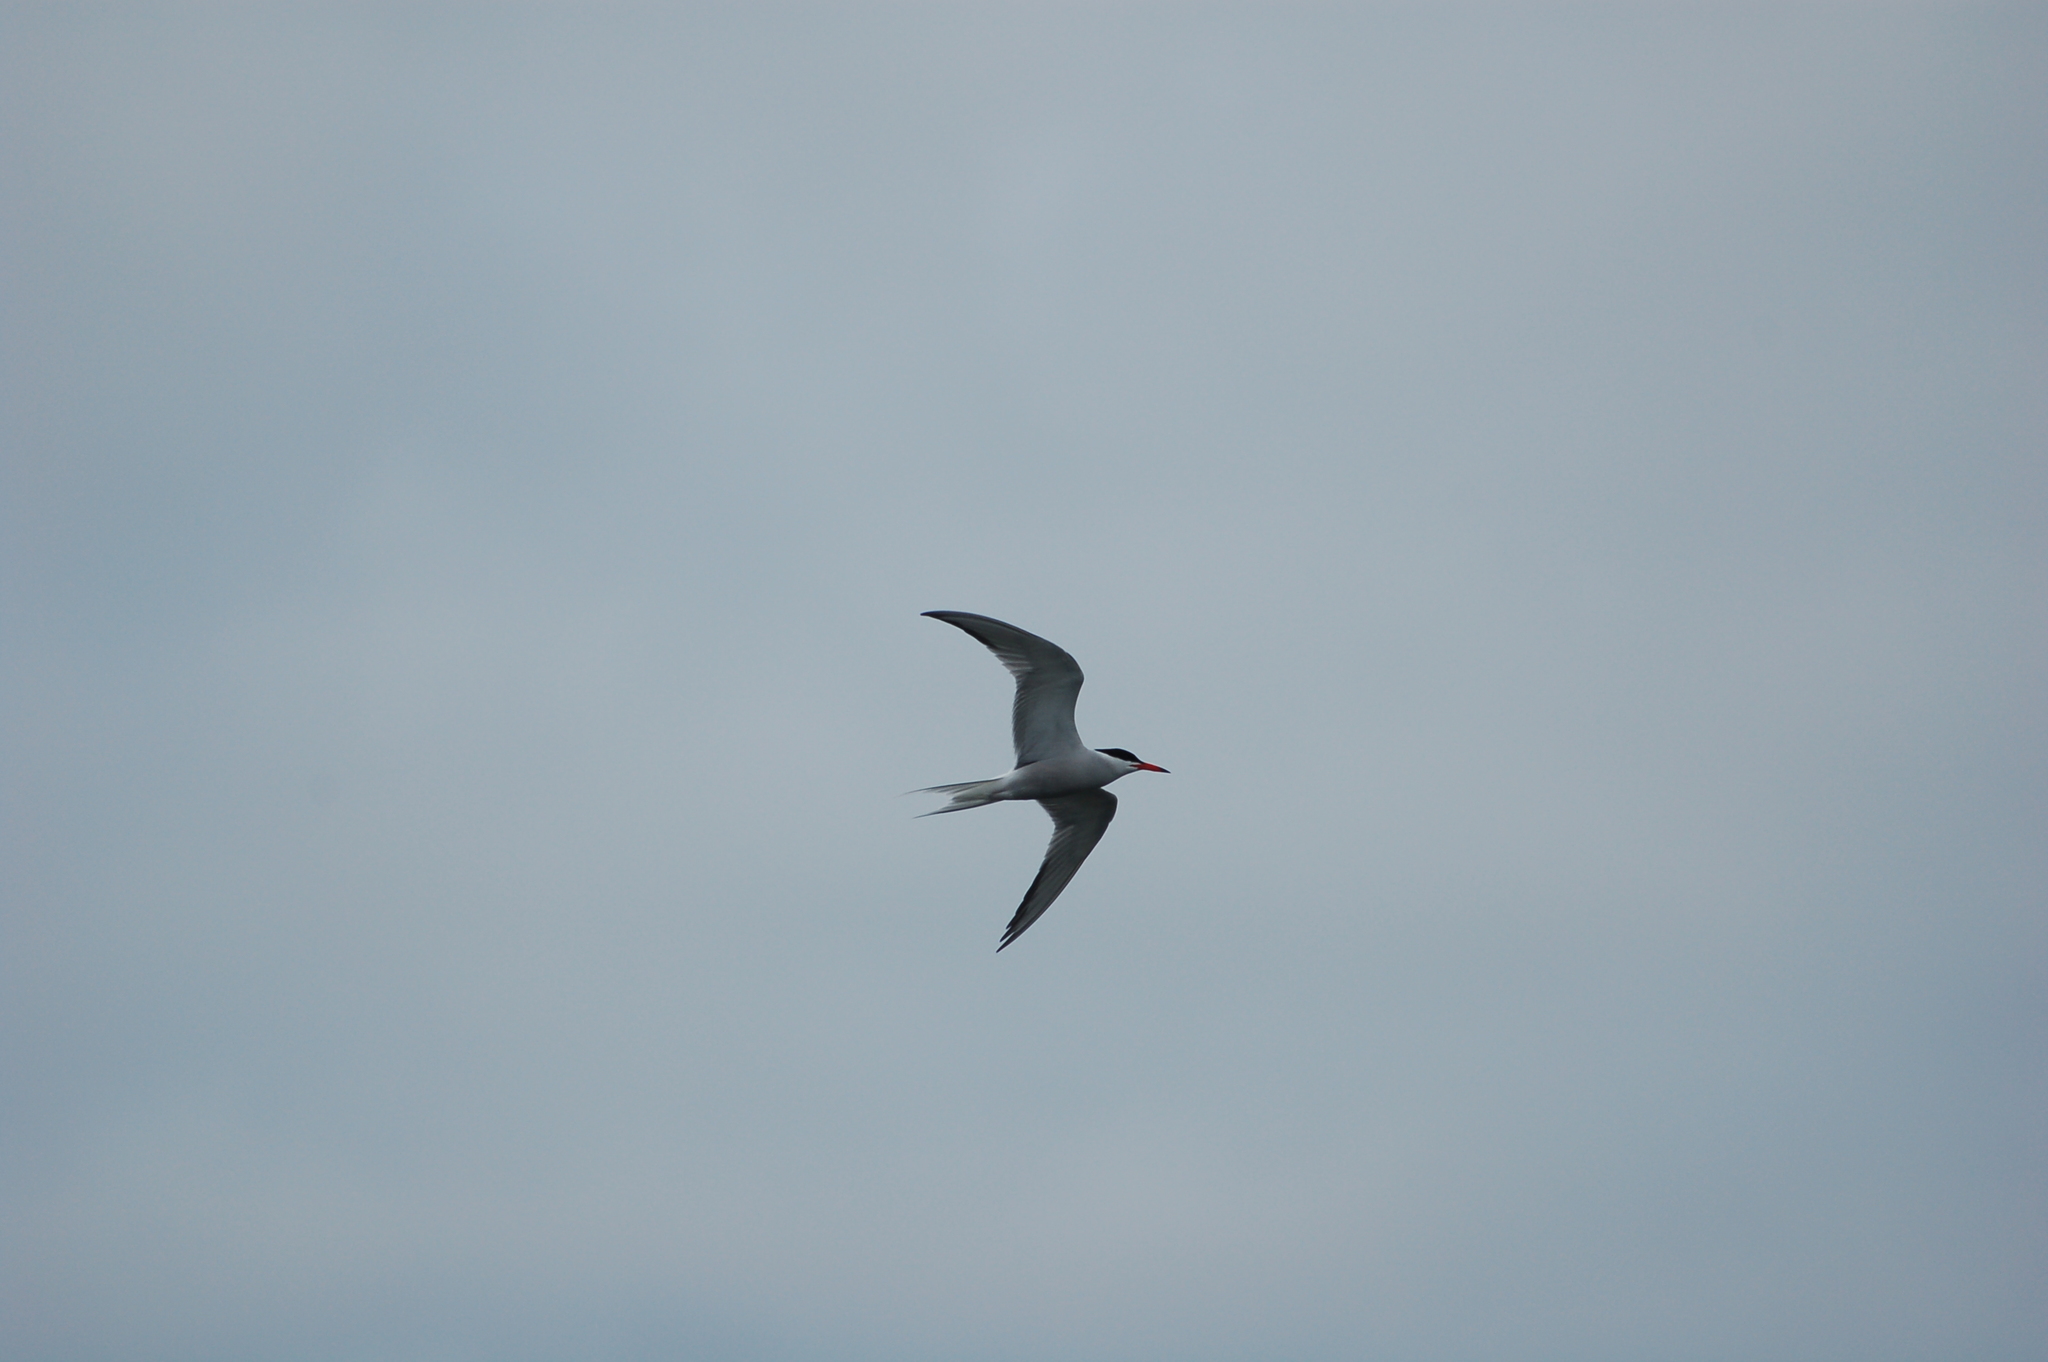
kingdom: Animalia
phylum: Chordata
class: Aves
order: Charadriiformes
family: Laridae
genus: Sterna
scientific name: Sterna hirundo
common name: Common tern
